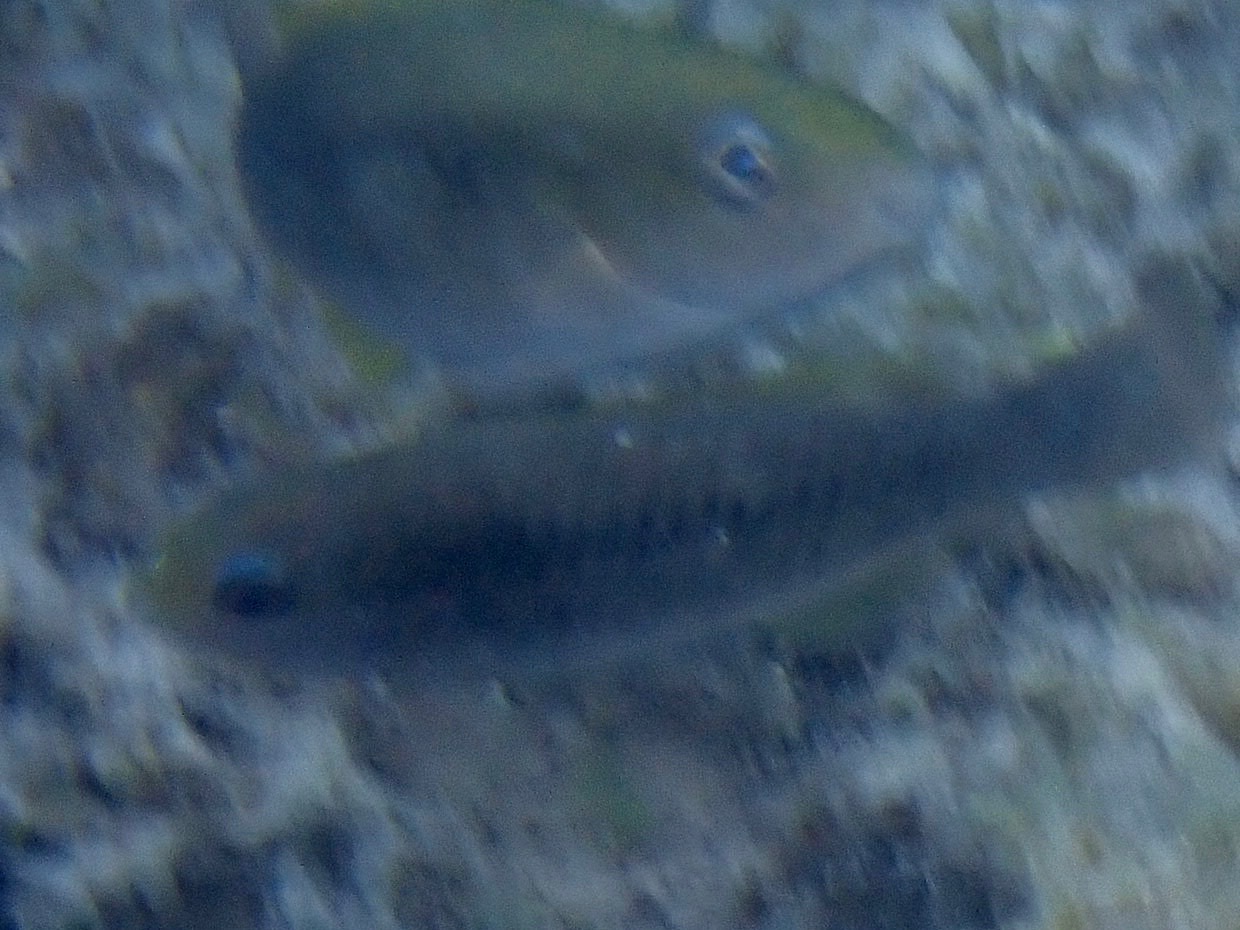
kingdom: Animalia
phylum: Chordata
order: Perciformes
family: Scaridae
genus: Scarus
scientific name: Scarus iseri
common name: Striped parrotfish
